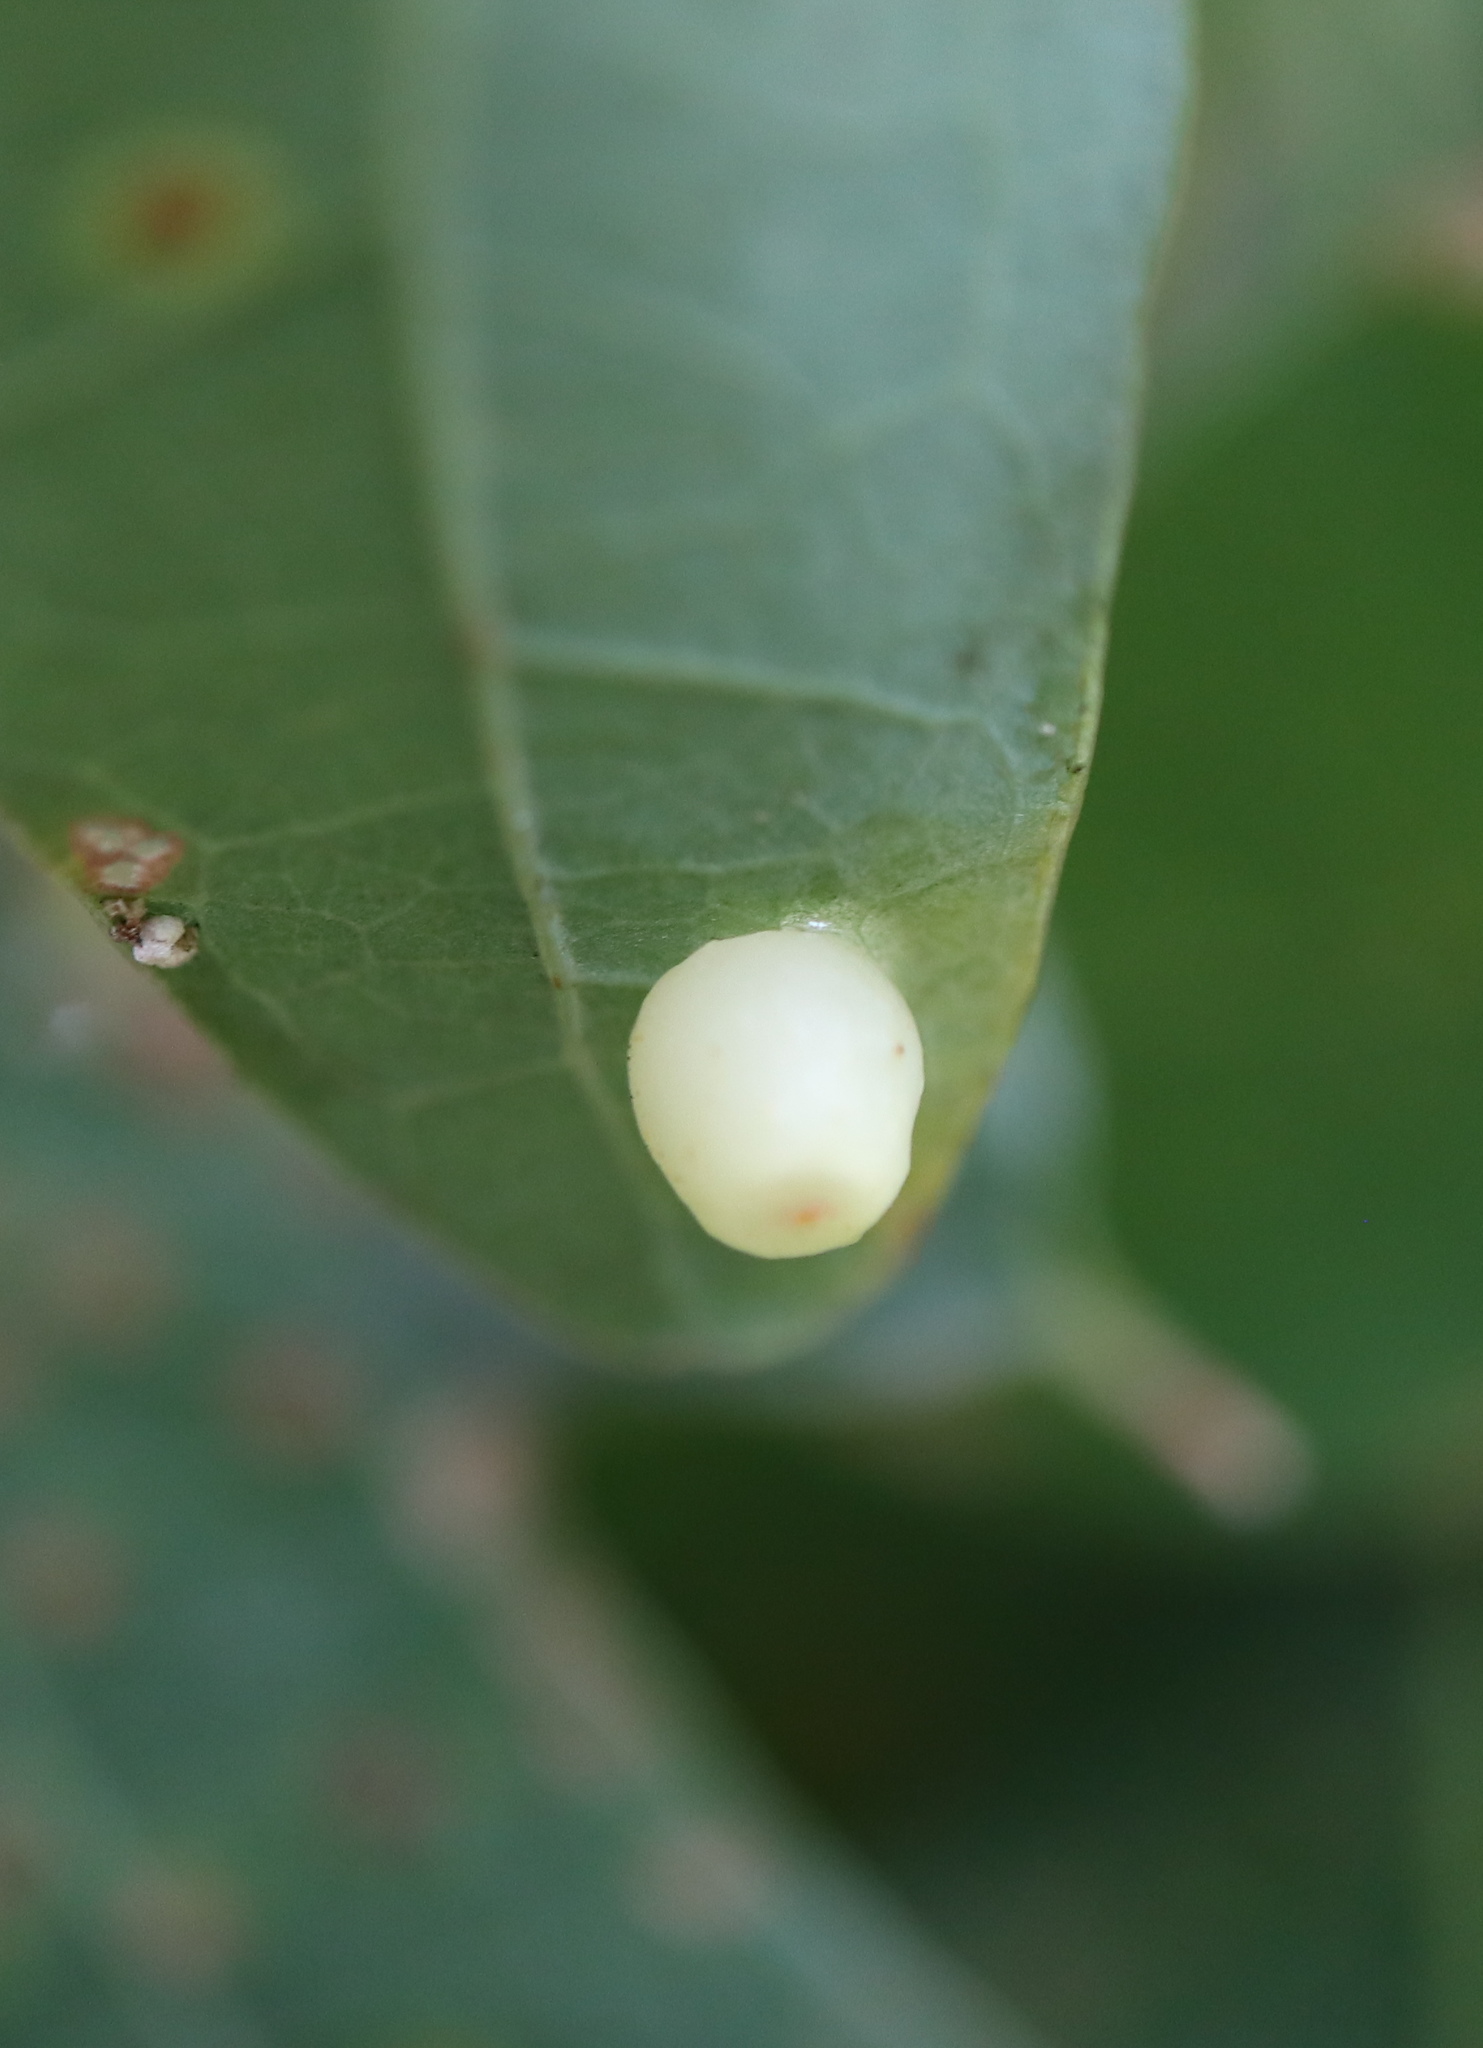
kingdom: Animalia
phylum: Arthropoda
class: Insecta
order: Hymenoptera
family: Cynipidae
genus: Andricus
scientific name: Andricus
